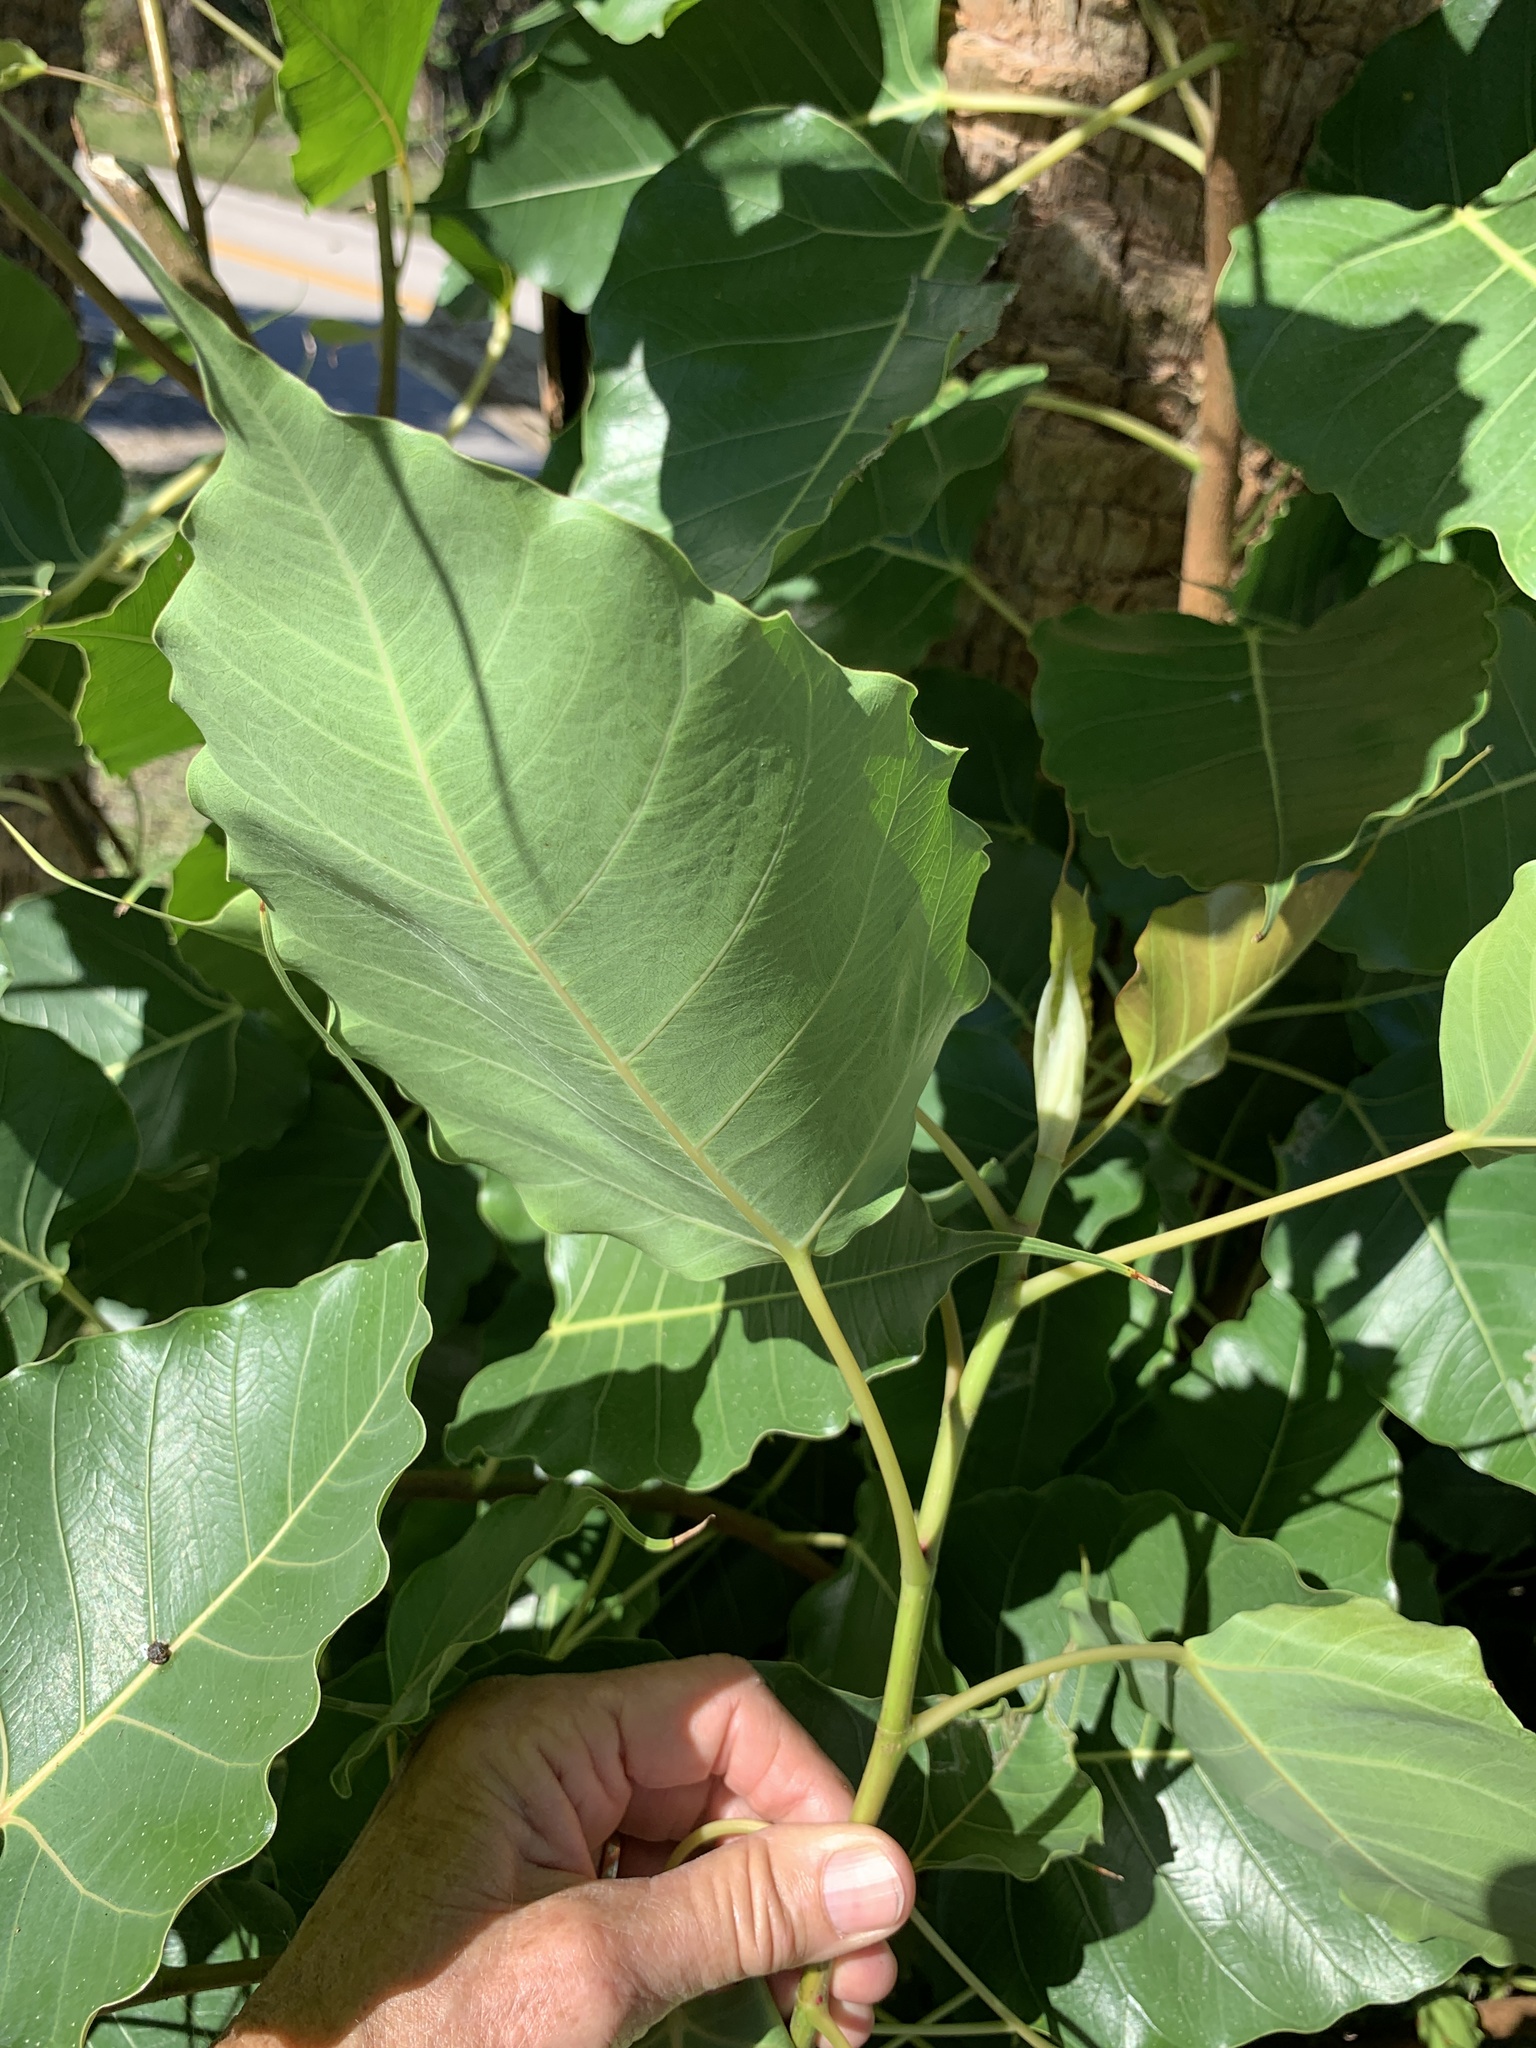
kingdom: Plantae
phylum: Tracheophyta
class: Magnoliopsida
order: Rosales
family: Moraceae
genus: Ficus
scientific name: Ficus religiosa
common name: Bodhi tree
